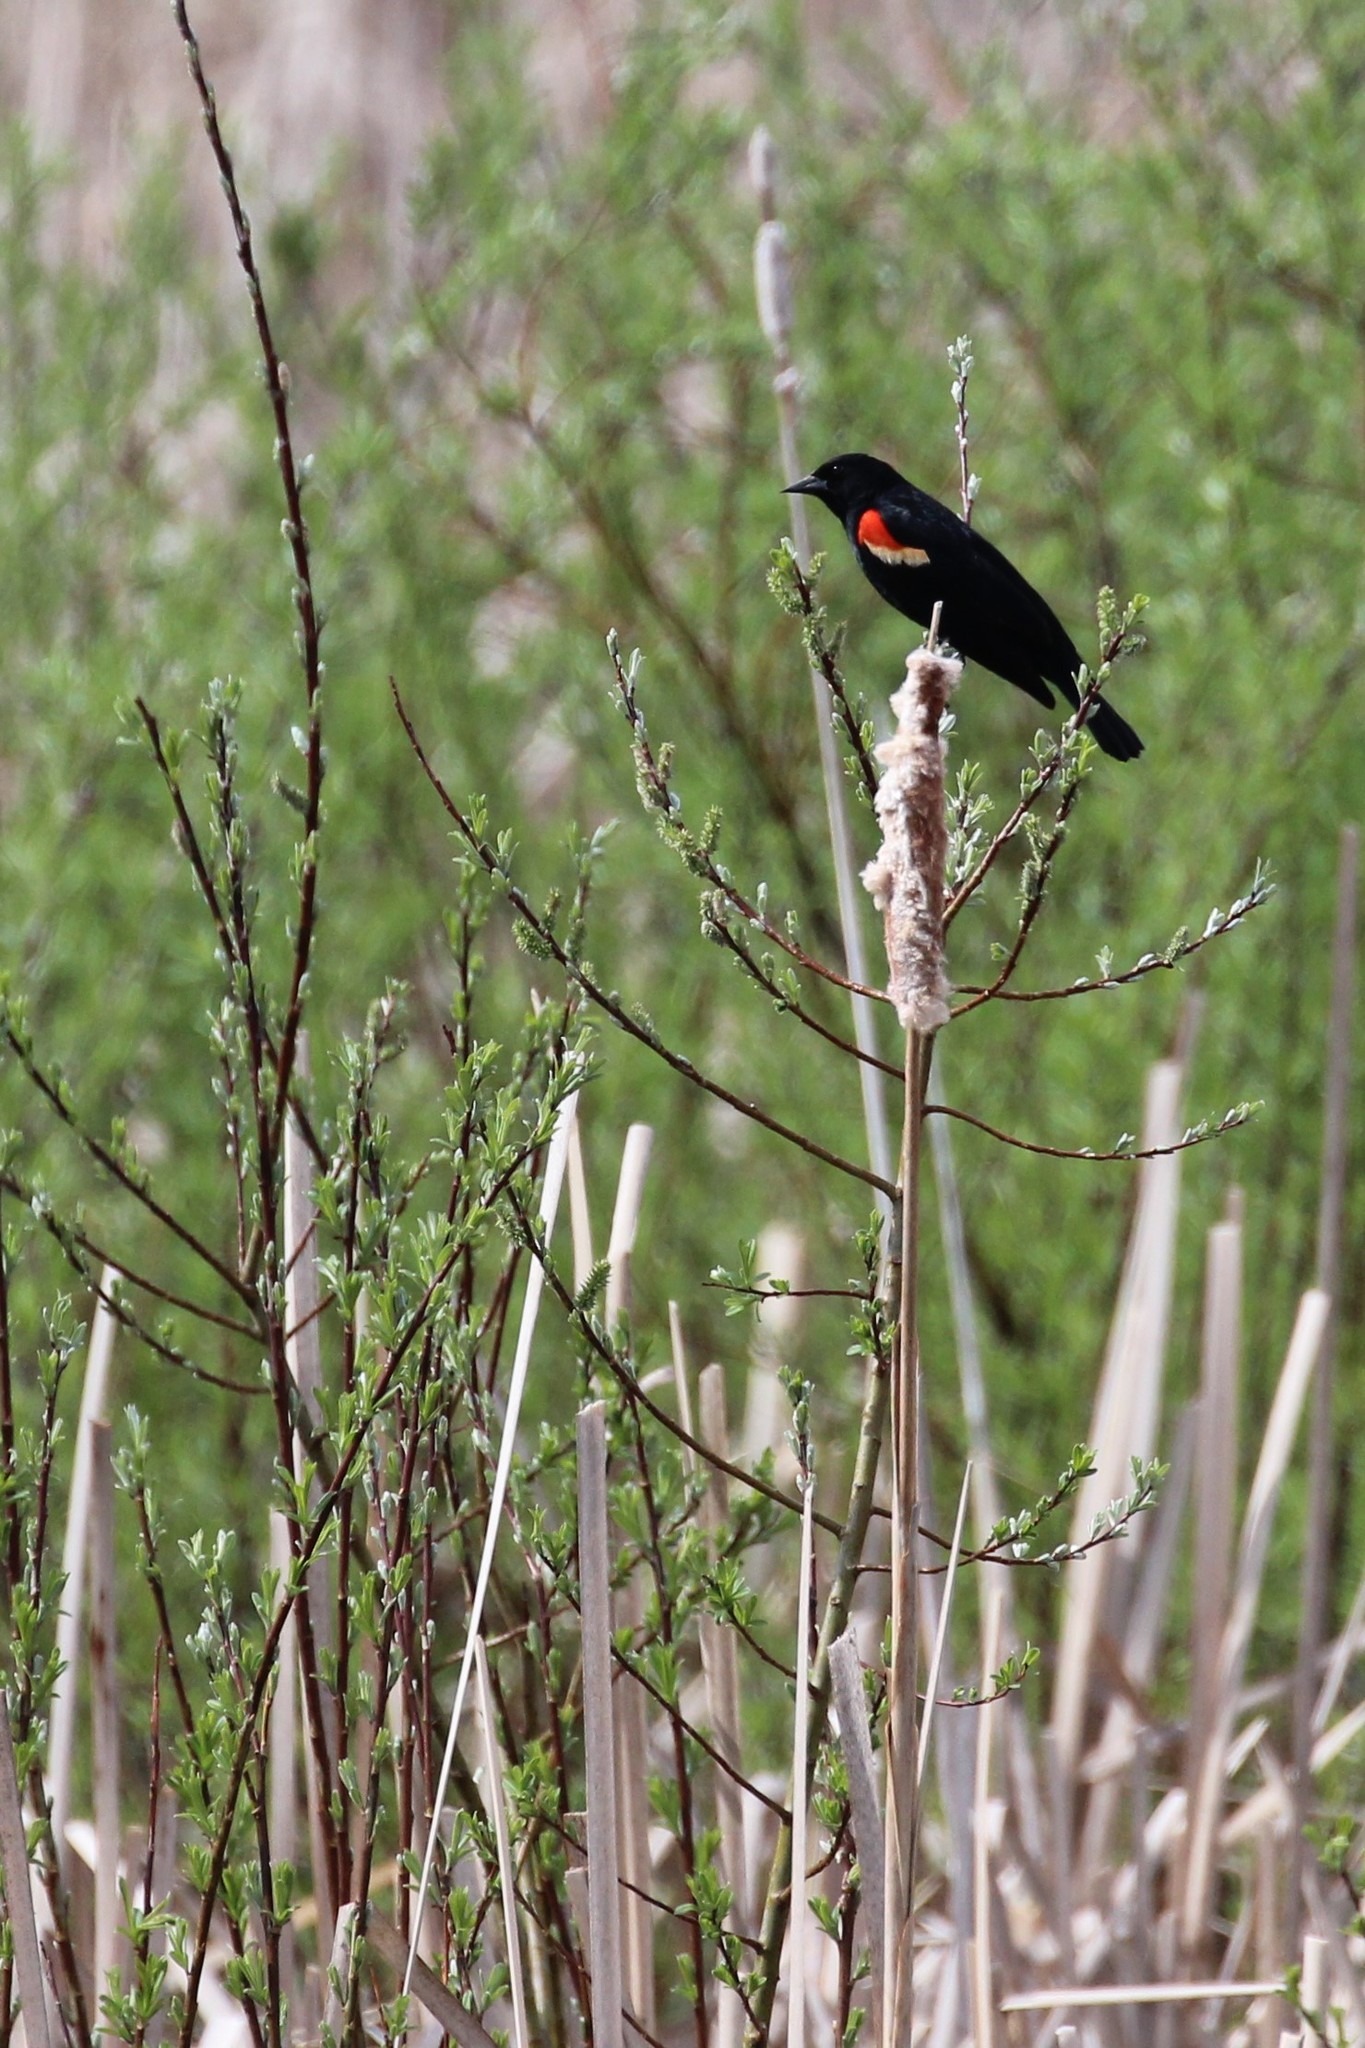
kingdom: Animalia
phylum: Chordata
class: Aves
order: Passeriformes
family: Icteridae
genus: Agelaius
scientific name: Agelaius phoeniceus
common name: Red-winged blackbird
